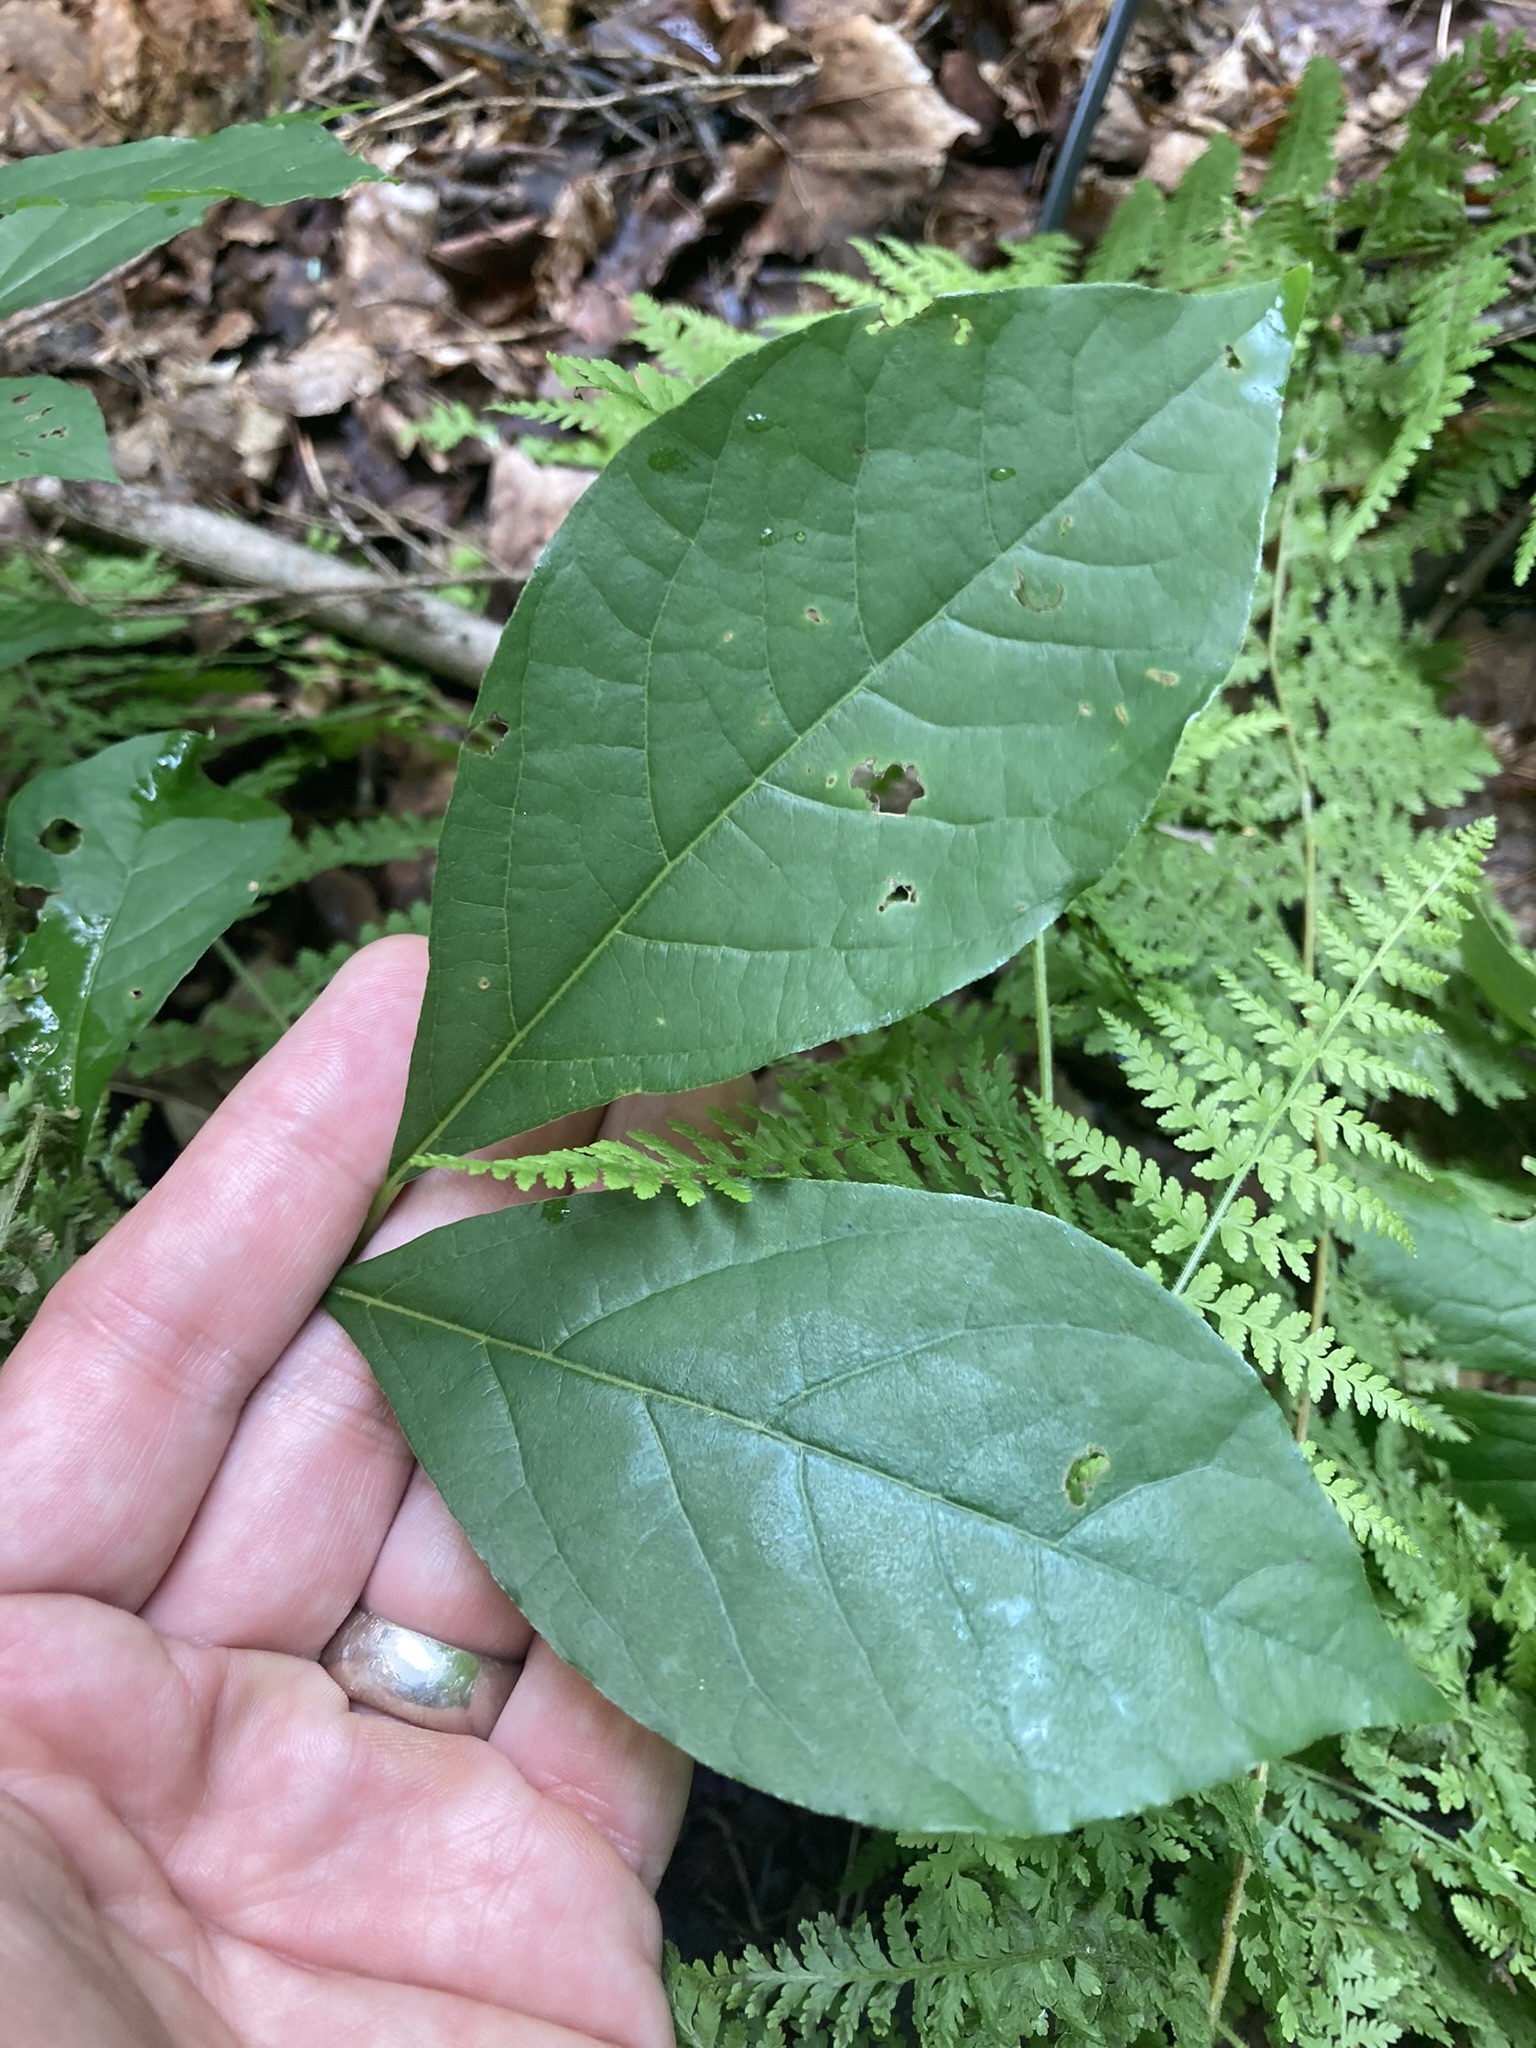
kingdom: Plantae
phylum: Tracheophyta
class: Magnoliopsida
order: Laurales
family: Lauraceae
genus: Lindera
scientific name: Lindera benzoin
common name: Spicebush
